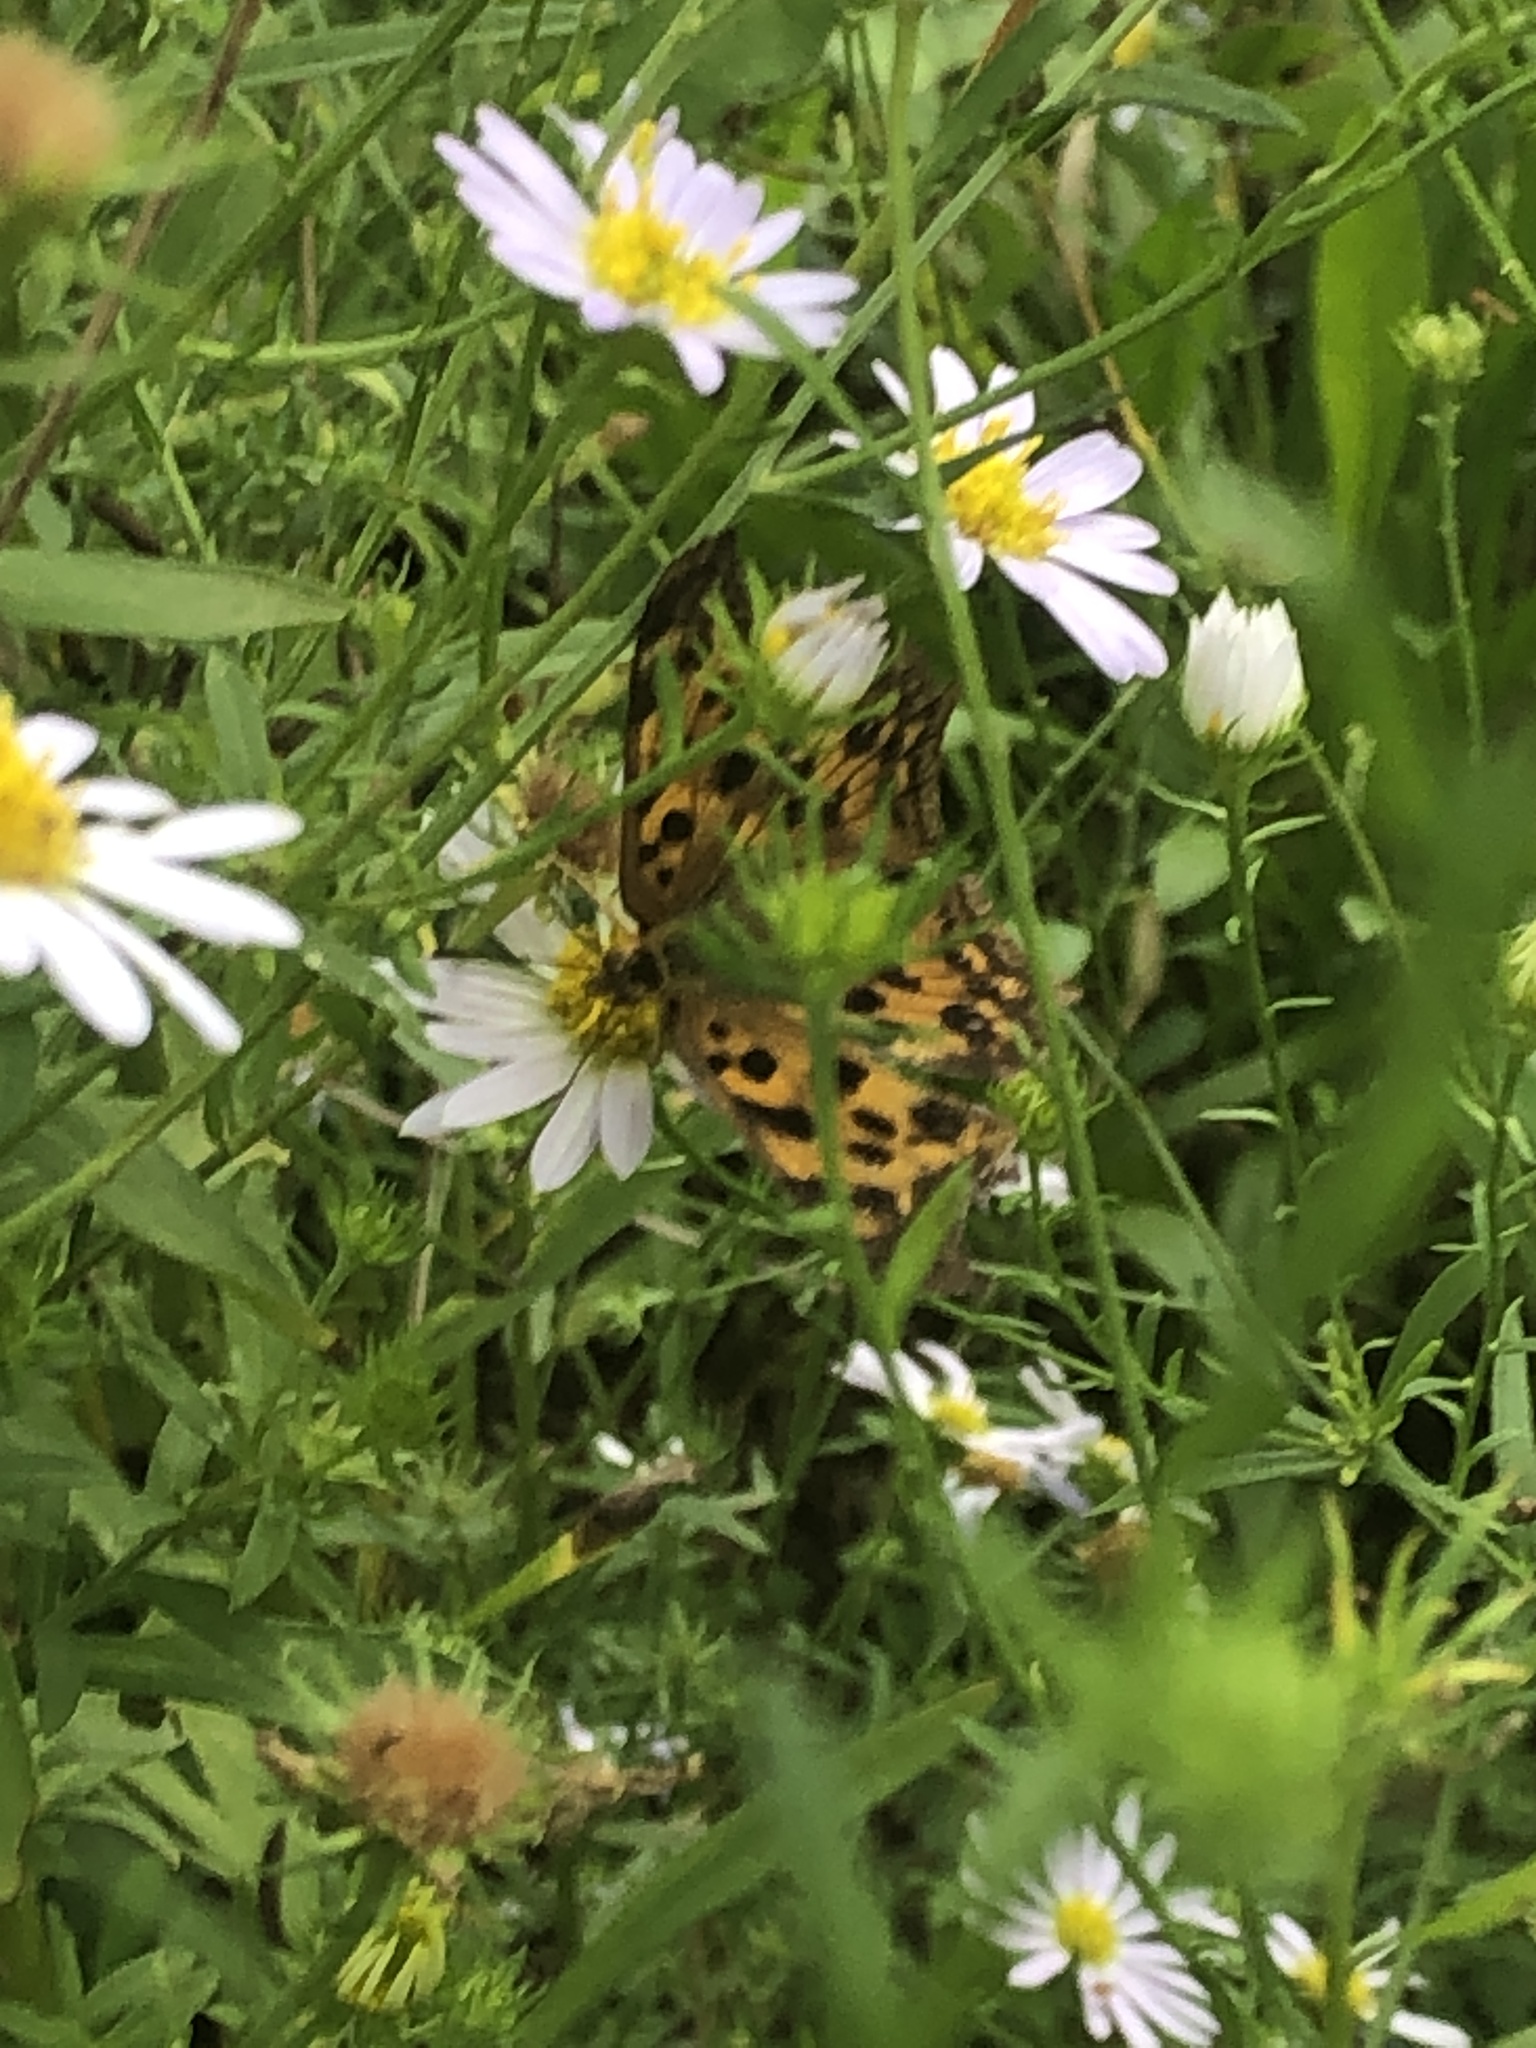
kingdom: Animalia
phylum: Arthropoda
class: Insecta
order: Lepidoptera
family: Nymphalidae
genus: Polygonia
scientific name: Polygonia c-aureum
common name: Asian comma
